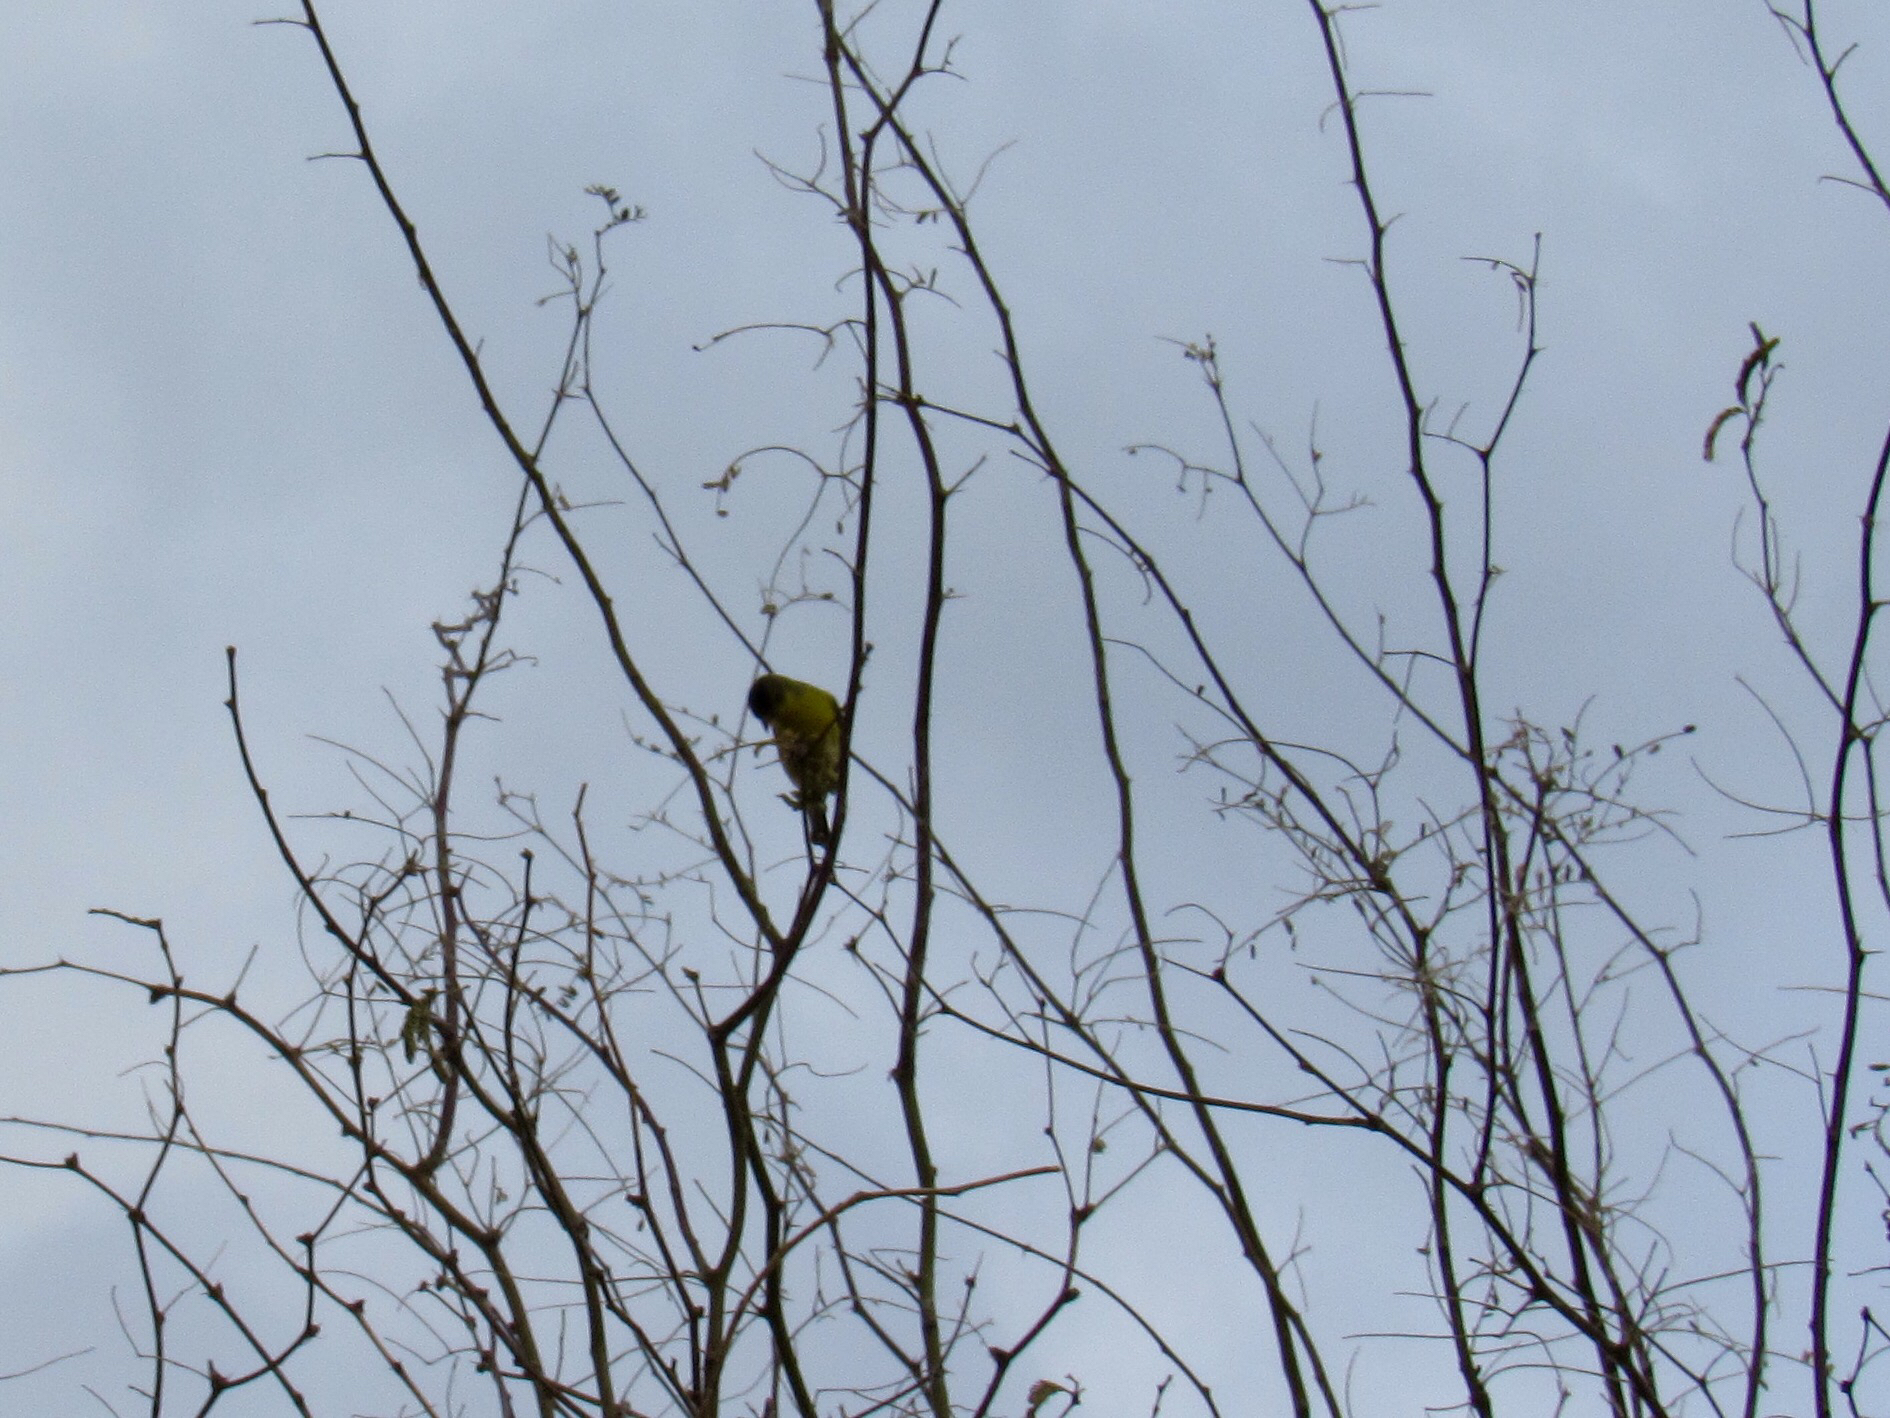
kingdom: Animalia
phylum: Chordata
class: Aves
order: Passeriformes
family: Fringillidae
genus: Spinus
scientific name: Spinus psaltria
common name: Lesser goldfinch
